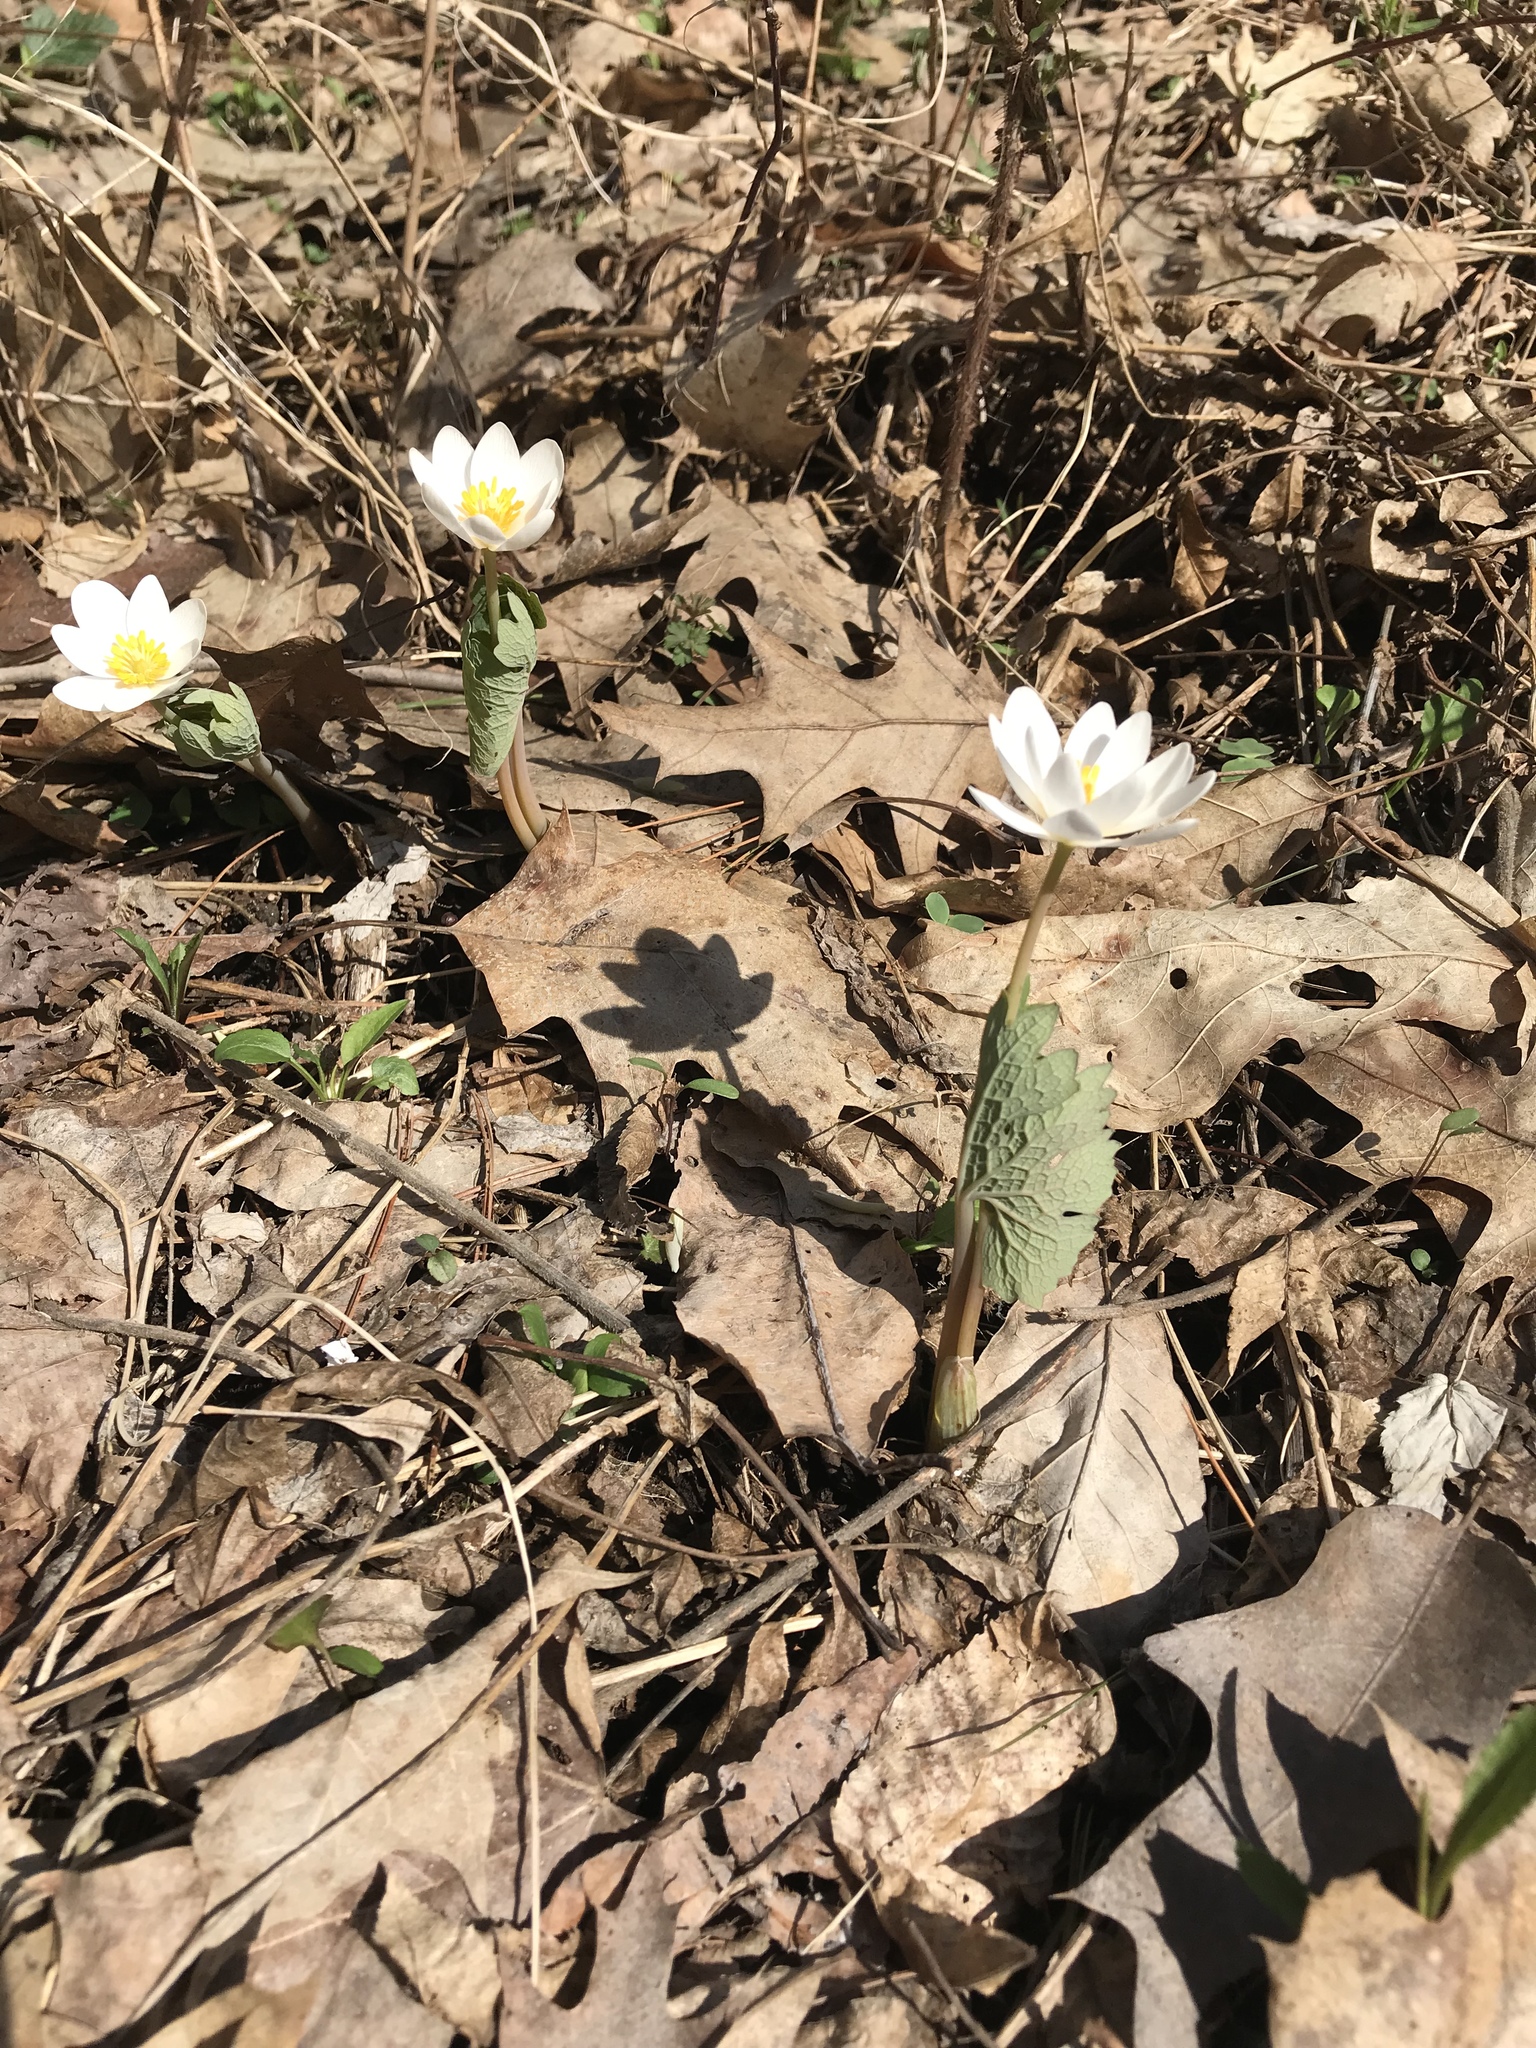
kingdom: Plantae
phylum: Tracheophyta
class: Magnoliopsida
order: Ranunculales
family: Papaveraceae
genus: Sanguinaria
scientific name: Sanguinaria canadensis
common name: Bloodroot
